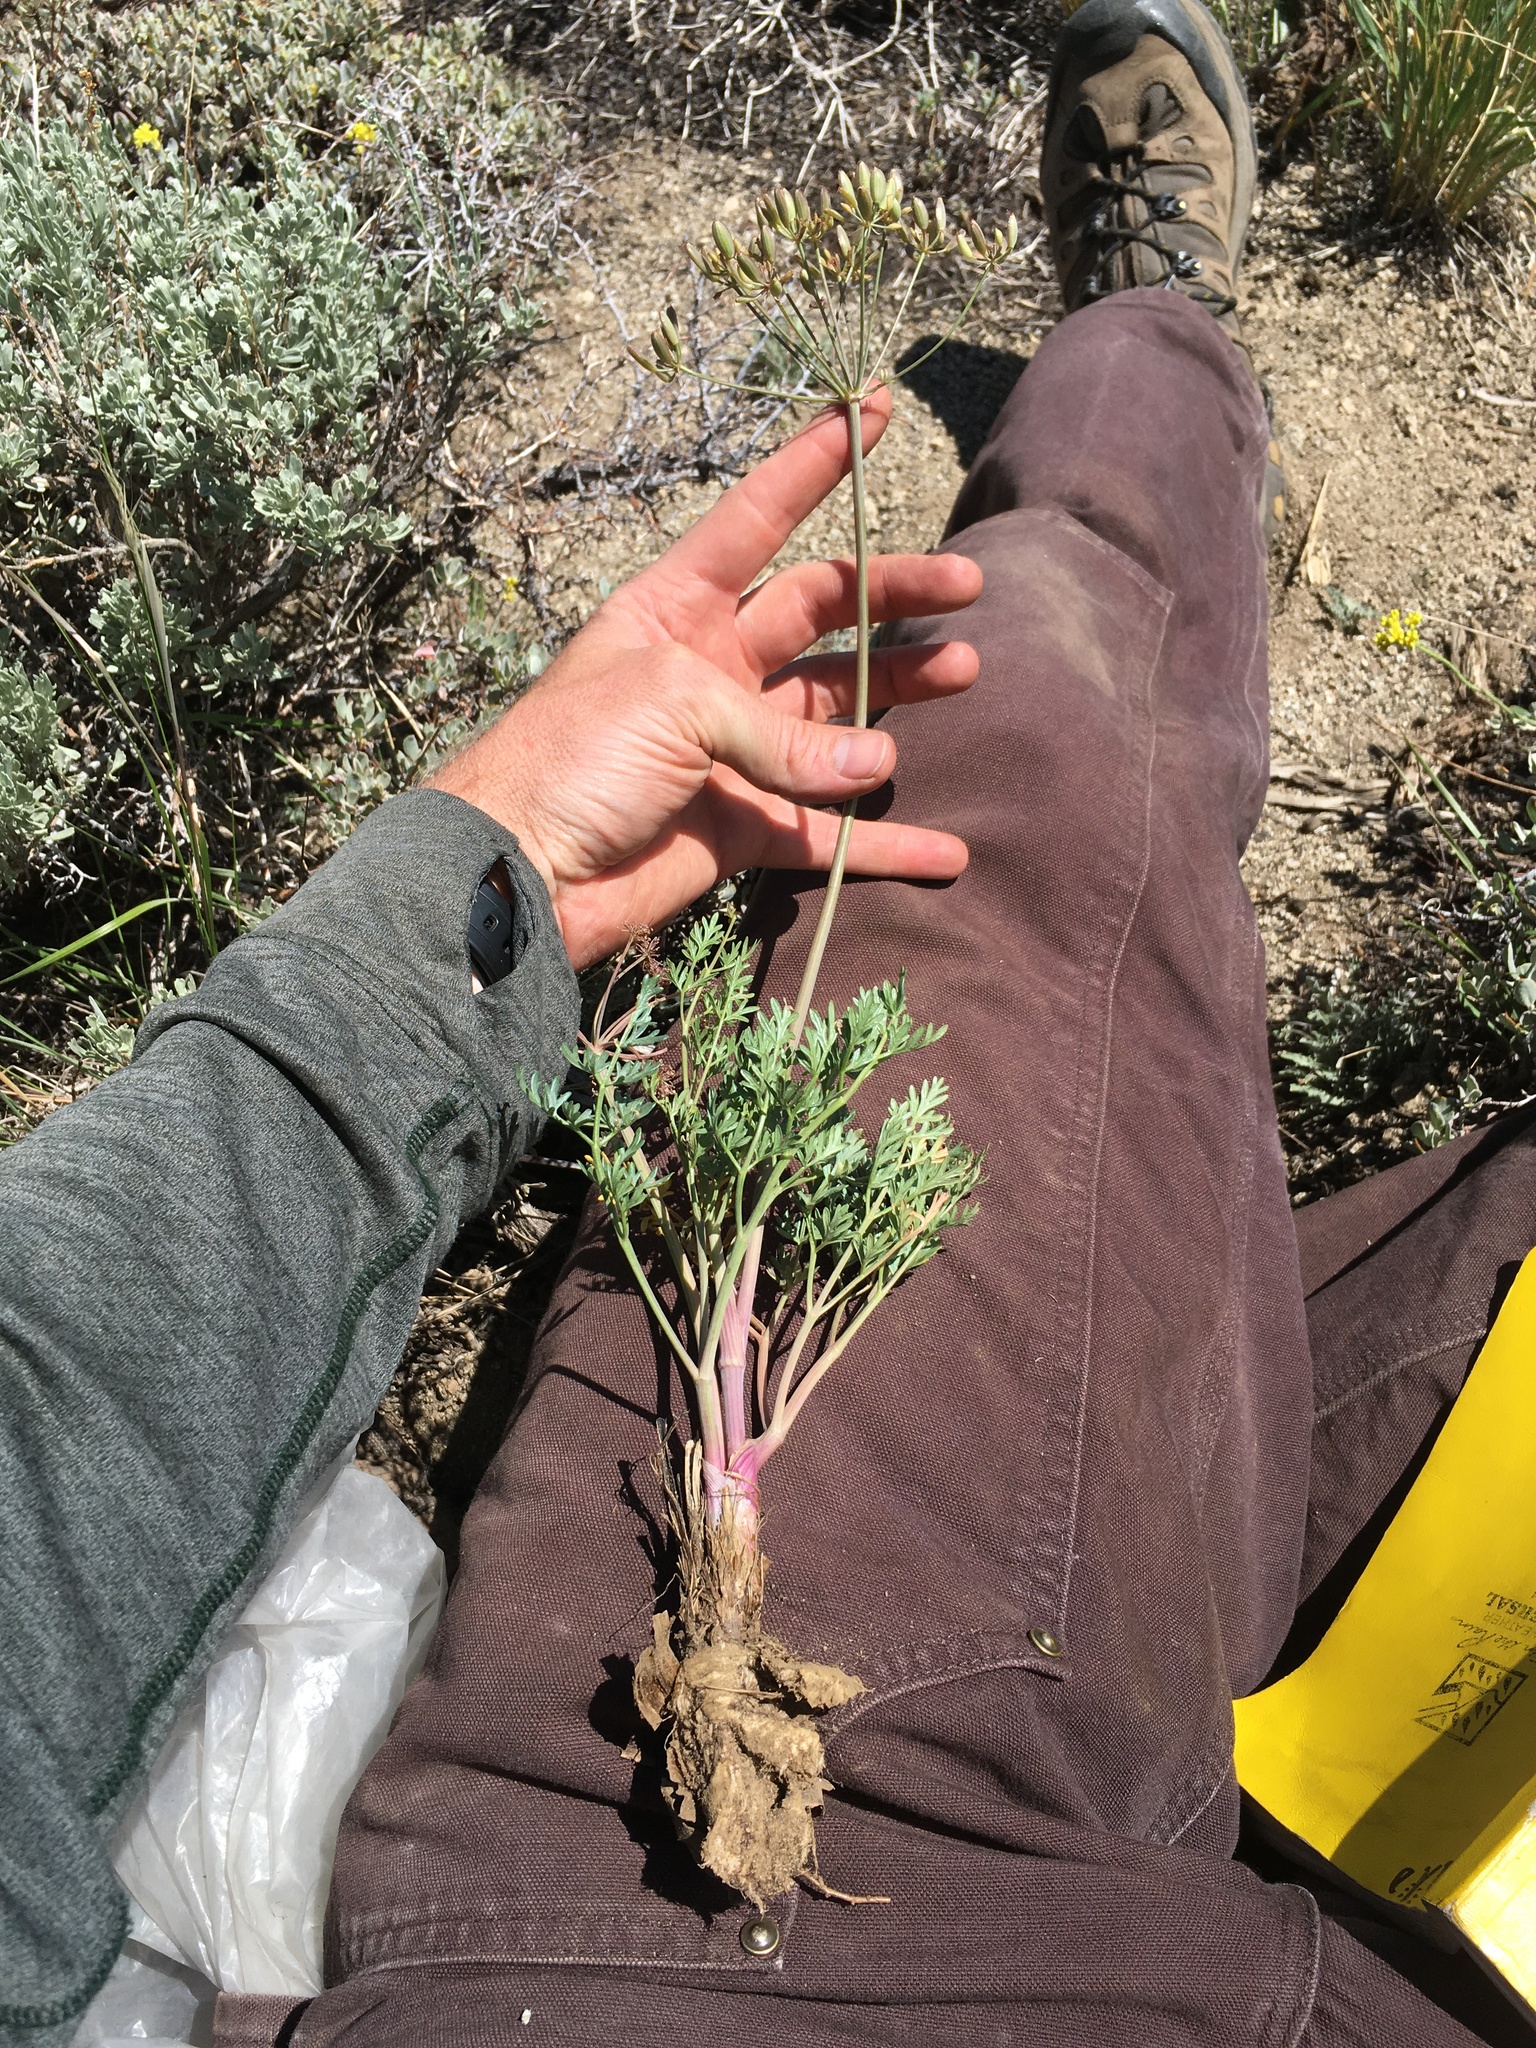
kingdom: Plantae
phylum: Tracheophyta
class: Magnoliopsida
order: Apiales
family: Apiaceae
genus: Lomatium
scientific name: Lomatium multifidum
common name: Carrot-leaved biscuitroot
